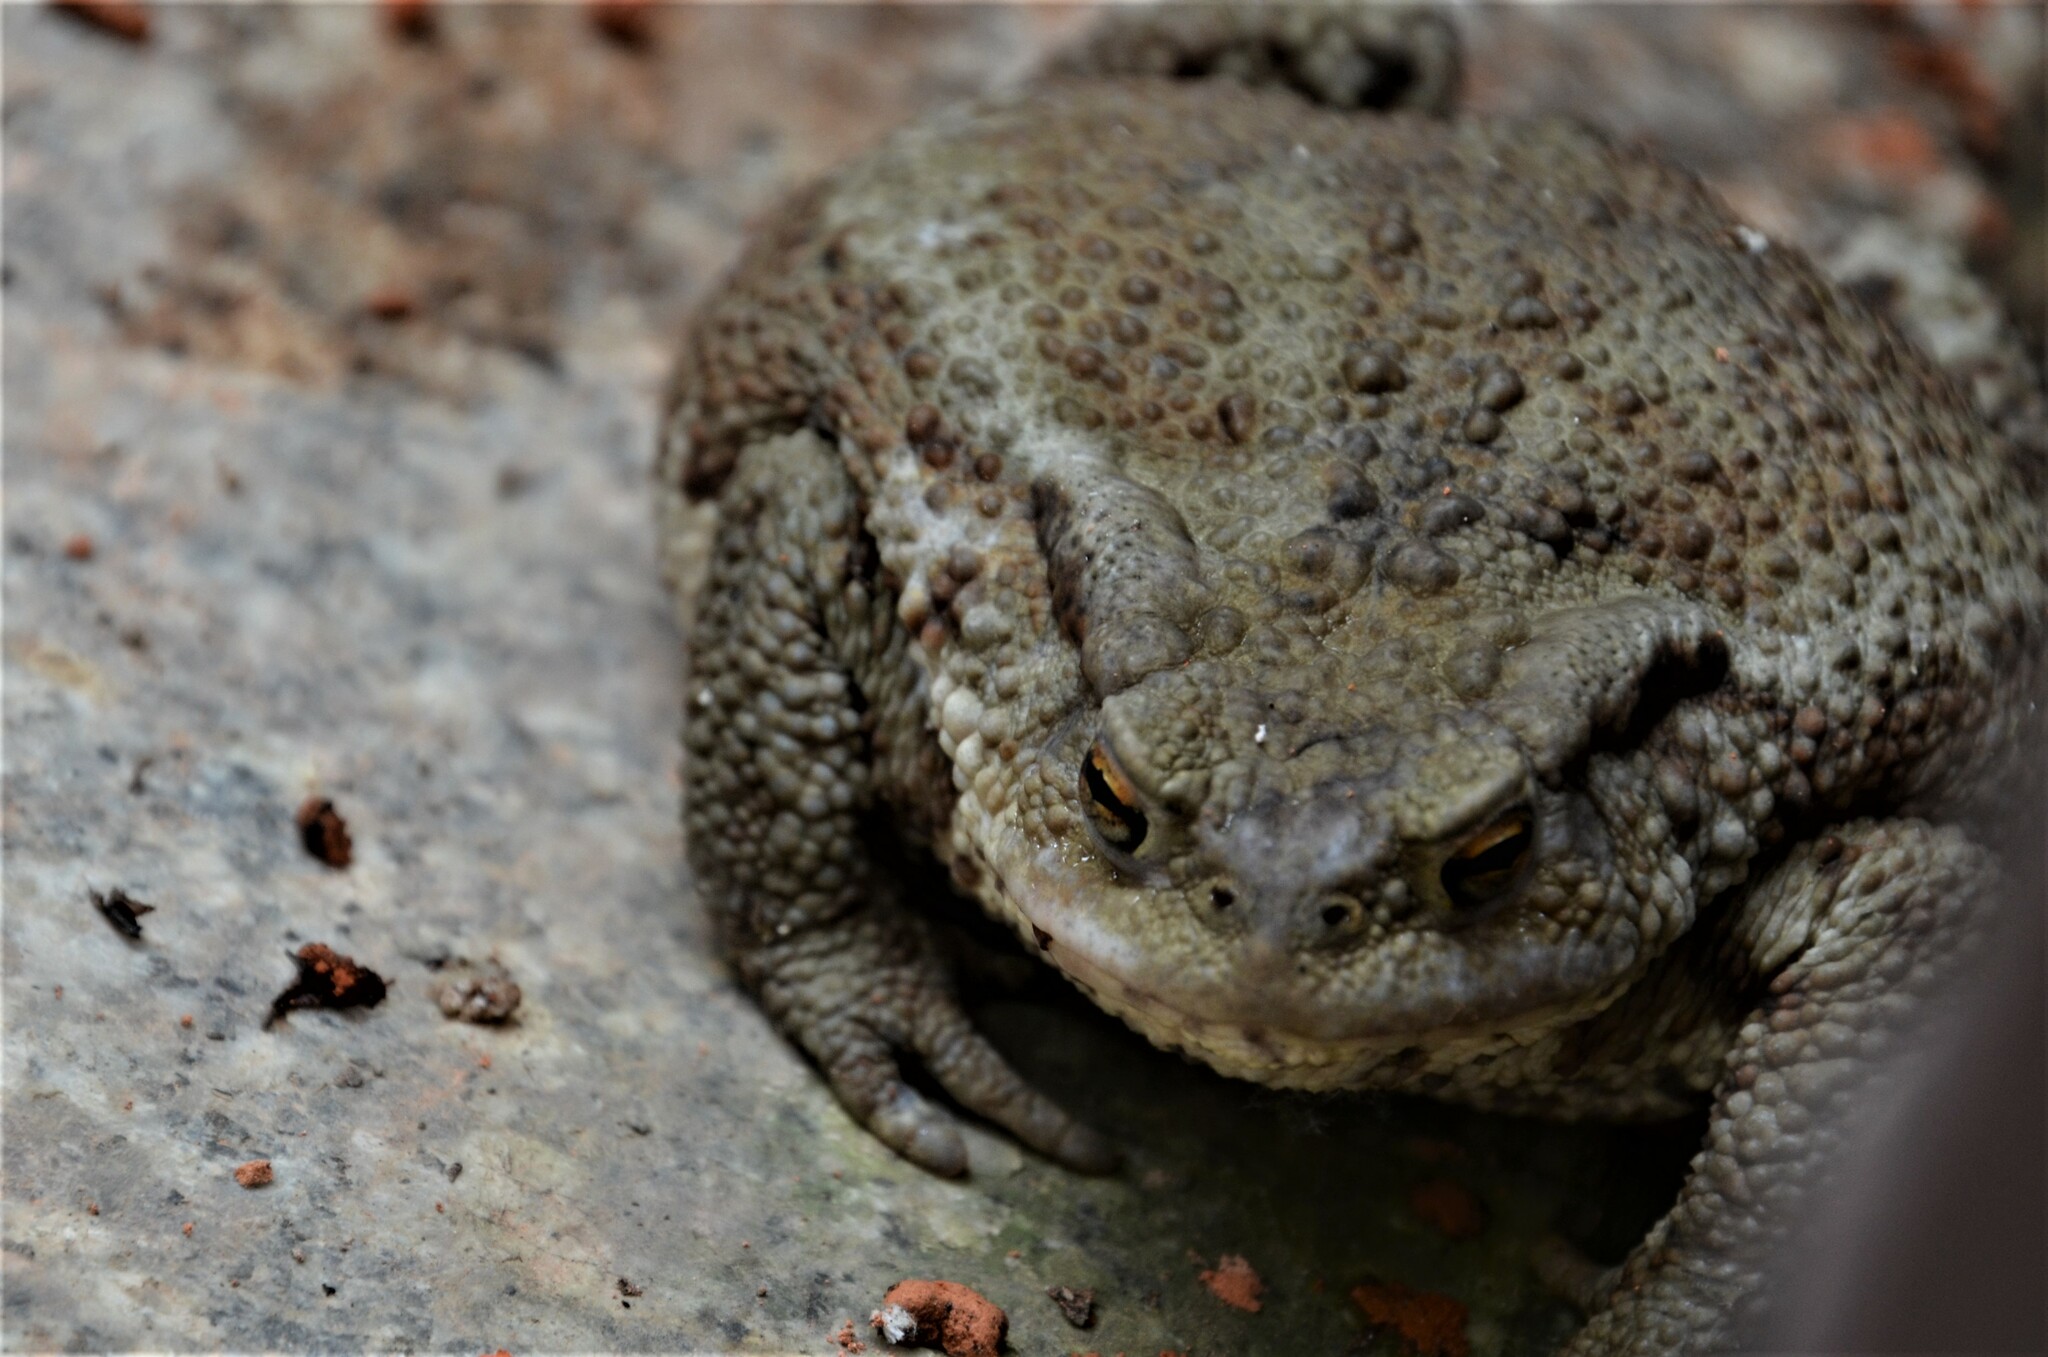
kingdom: Animalia
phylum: Chordata
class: Amphibia
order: Anura
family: Bufonidae
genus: Bufo
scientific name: Bufo bufo
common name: Common toad
